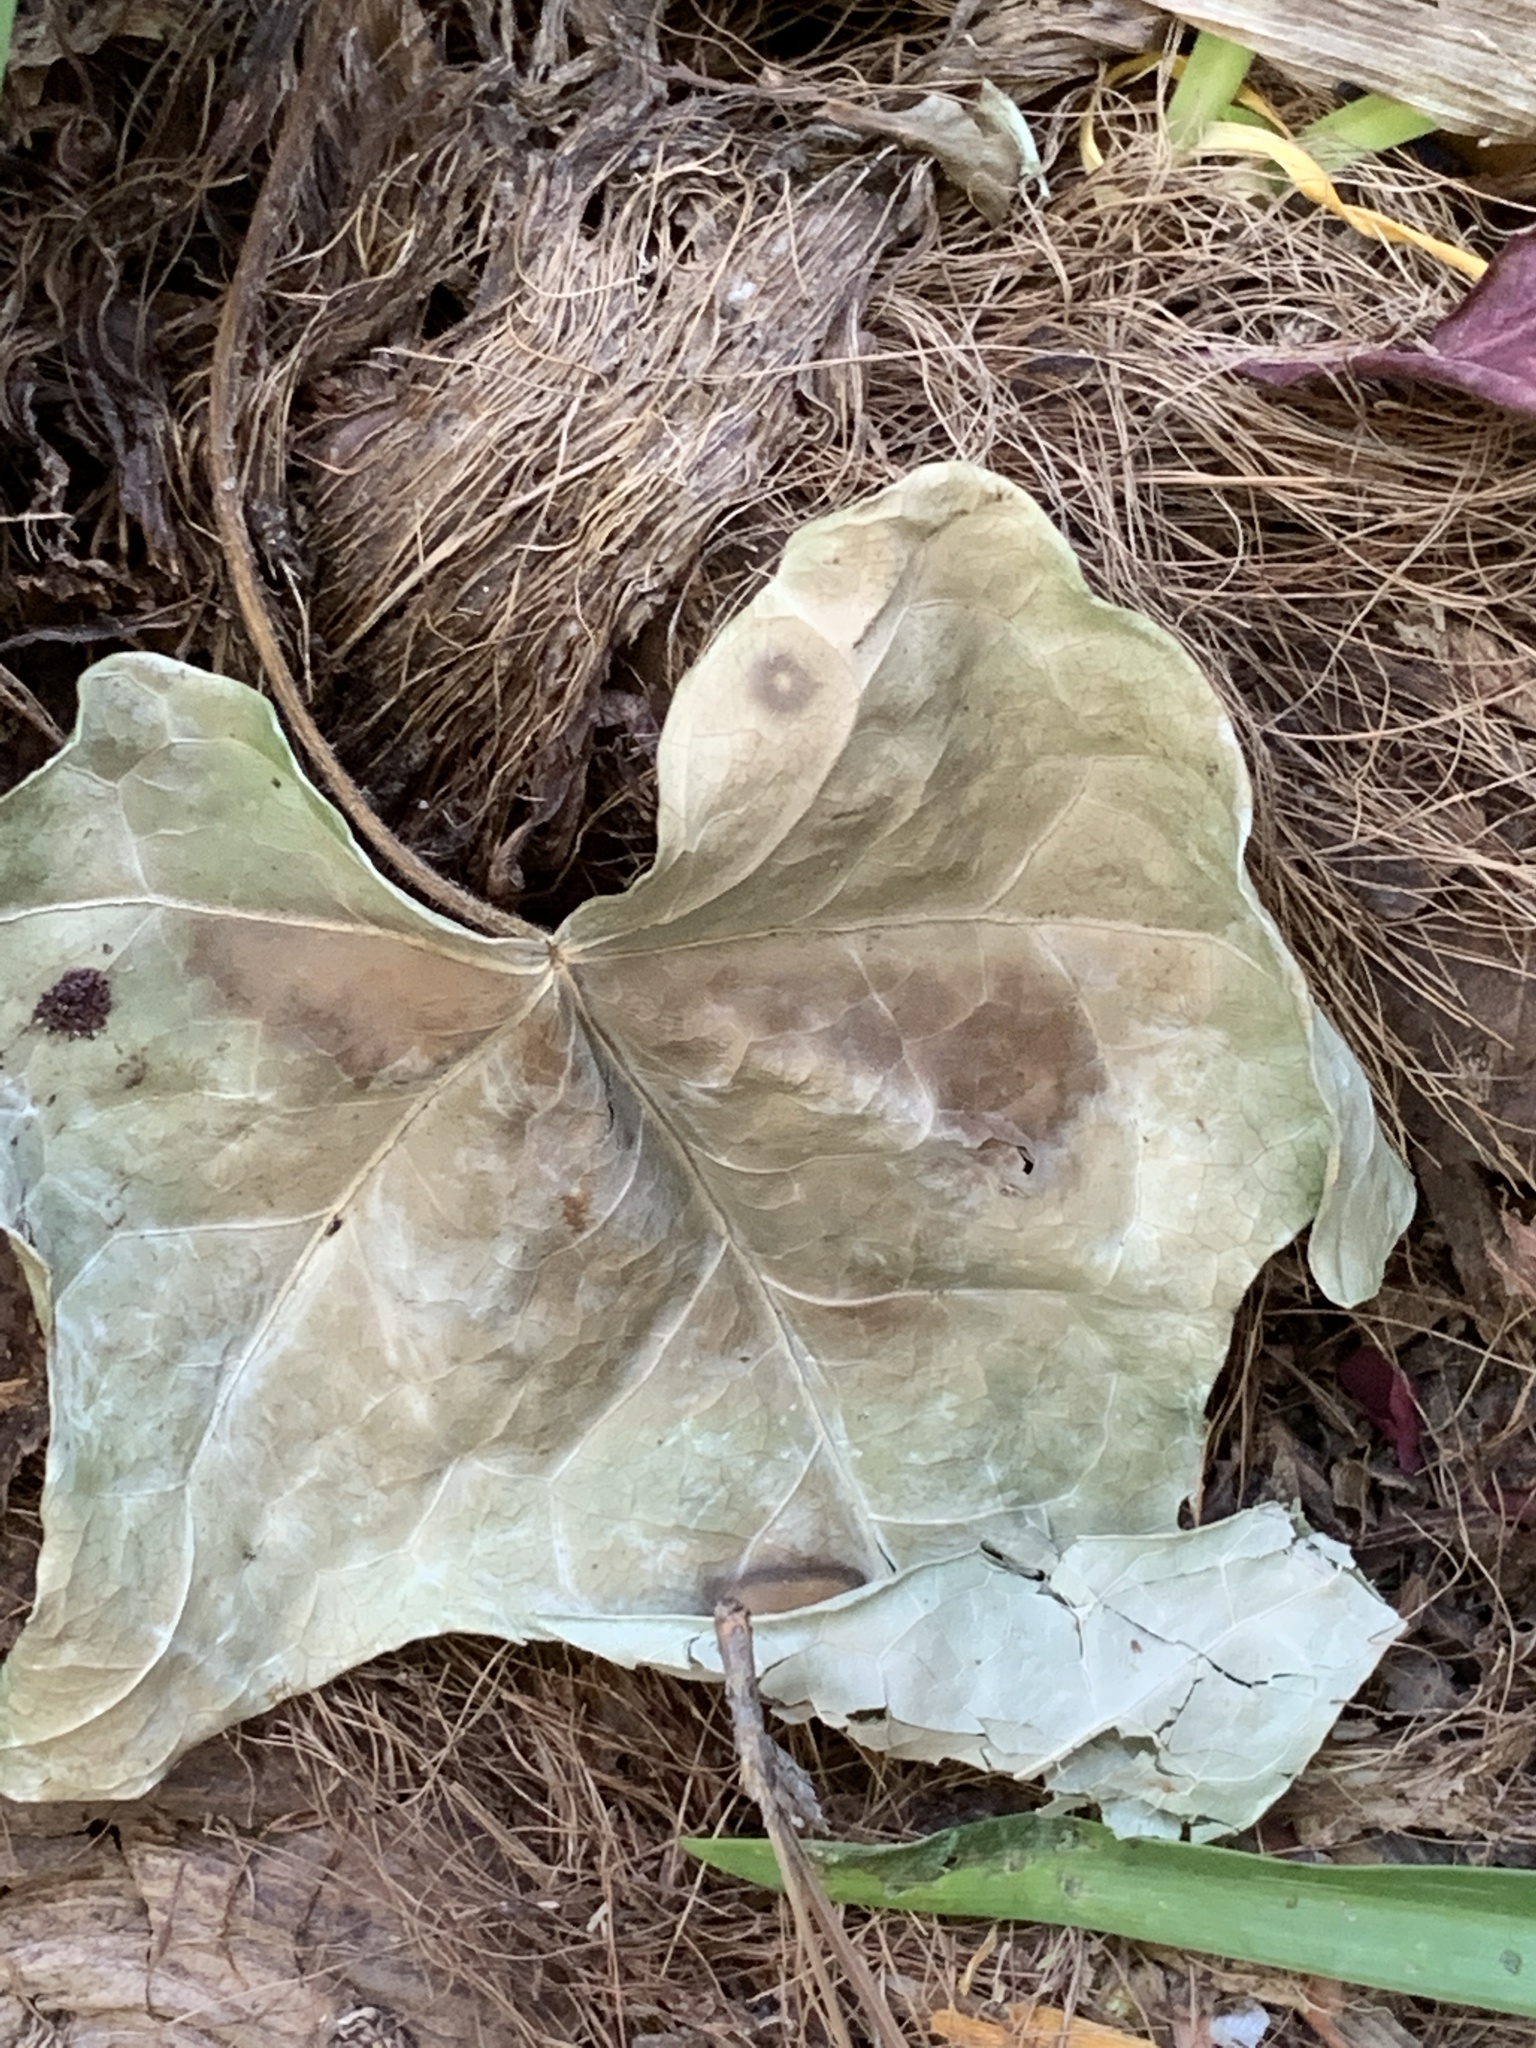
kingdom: Plantae
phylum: Tracheophyta
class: Magnoliopsida
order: Apiales
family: Araliaceae
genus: Hedera
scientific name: Hedera helix
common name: Ivy
